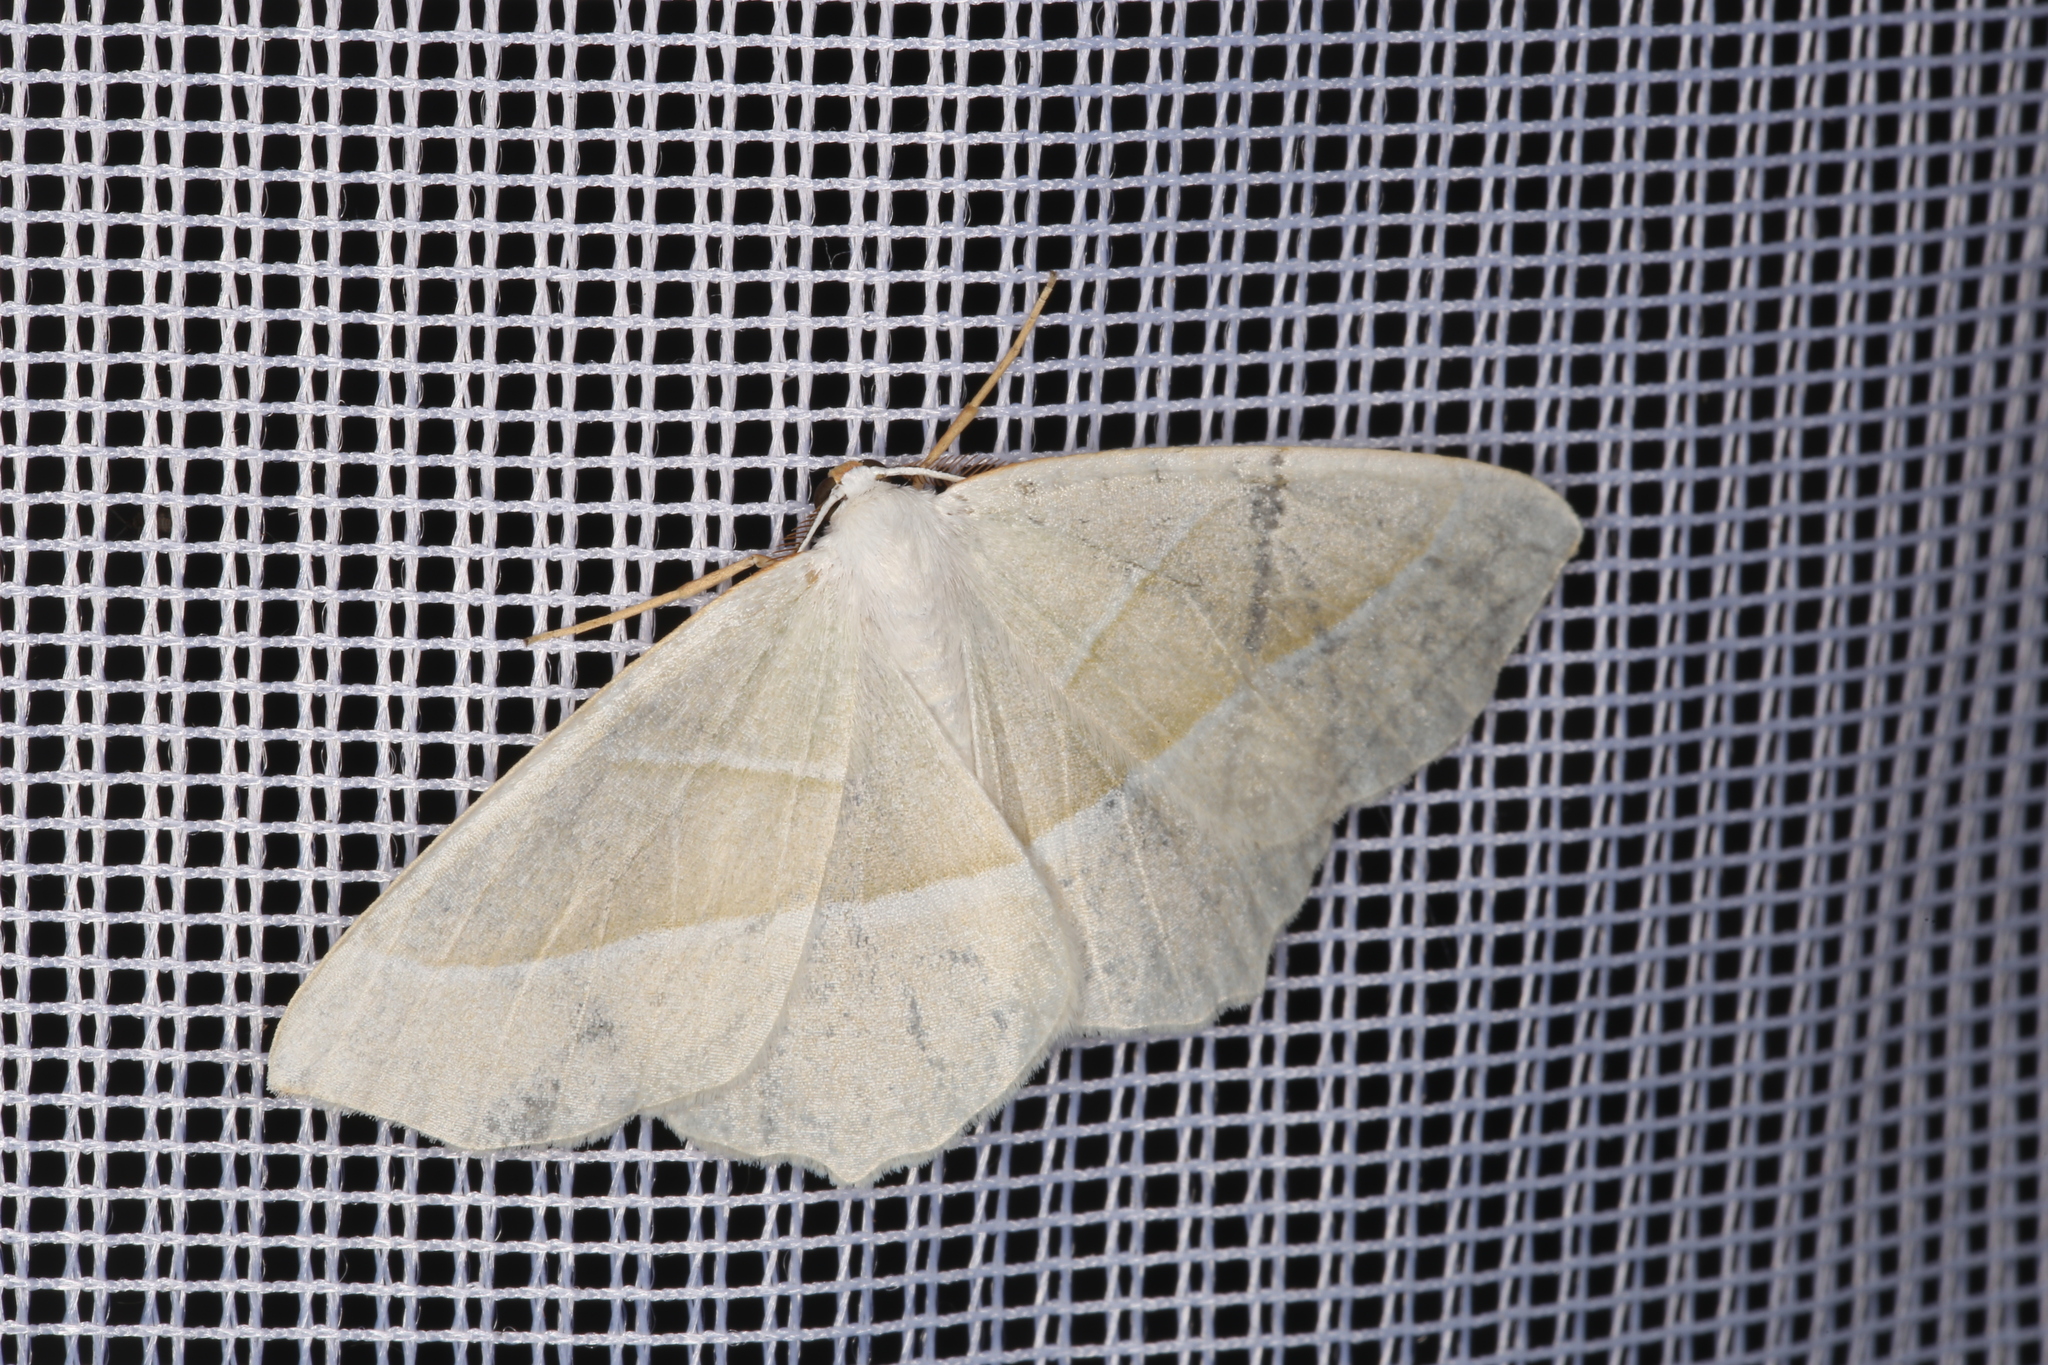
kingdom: Animalia
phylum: Arthropoda
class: Insecta
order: Lepidoptera
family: Geometridae
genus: Campaea
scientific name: Campaea margaritaria
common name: Light emerald
